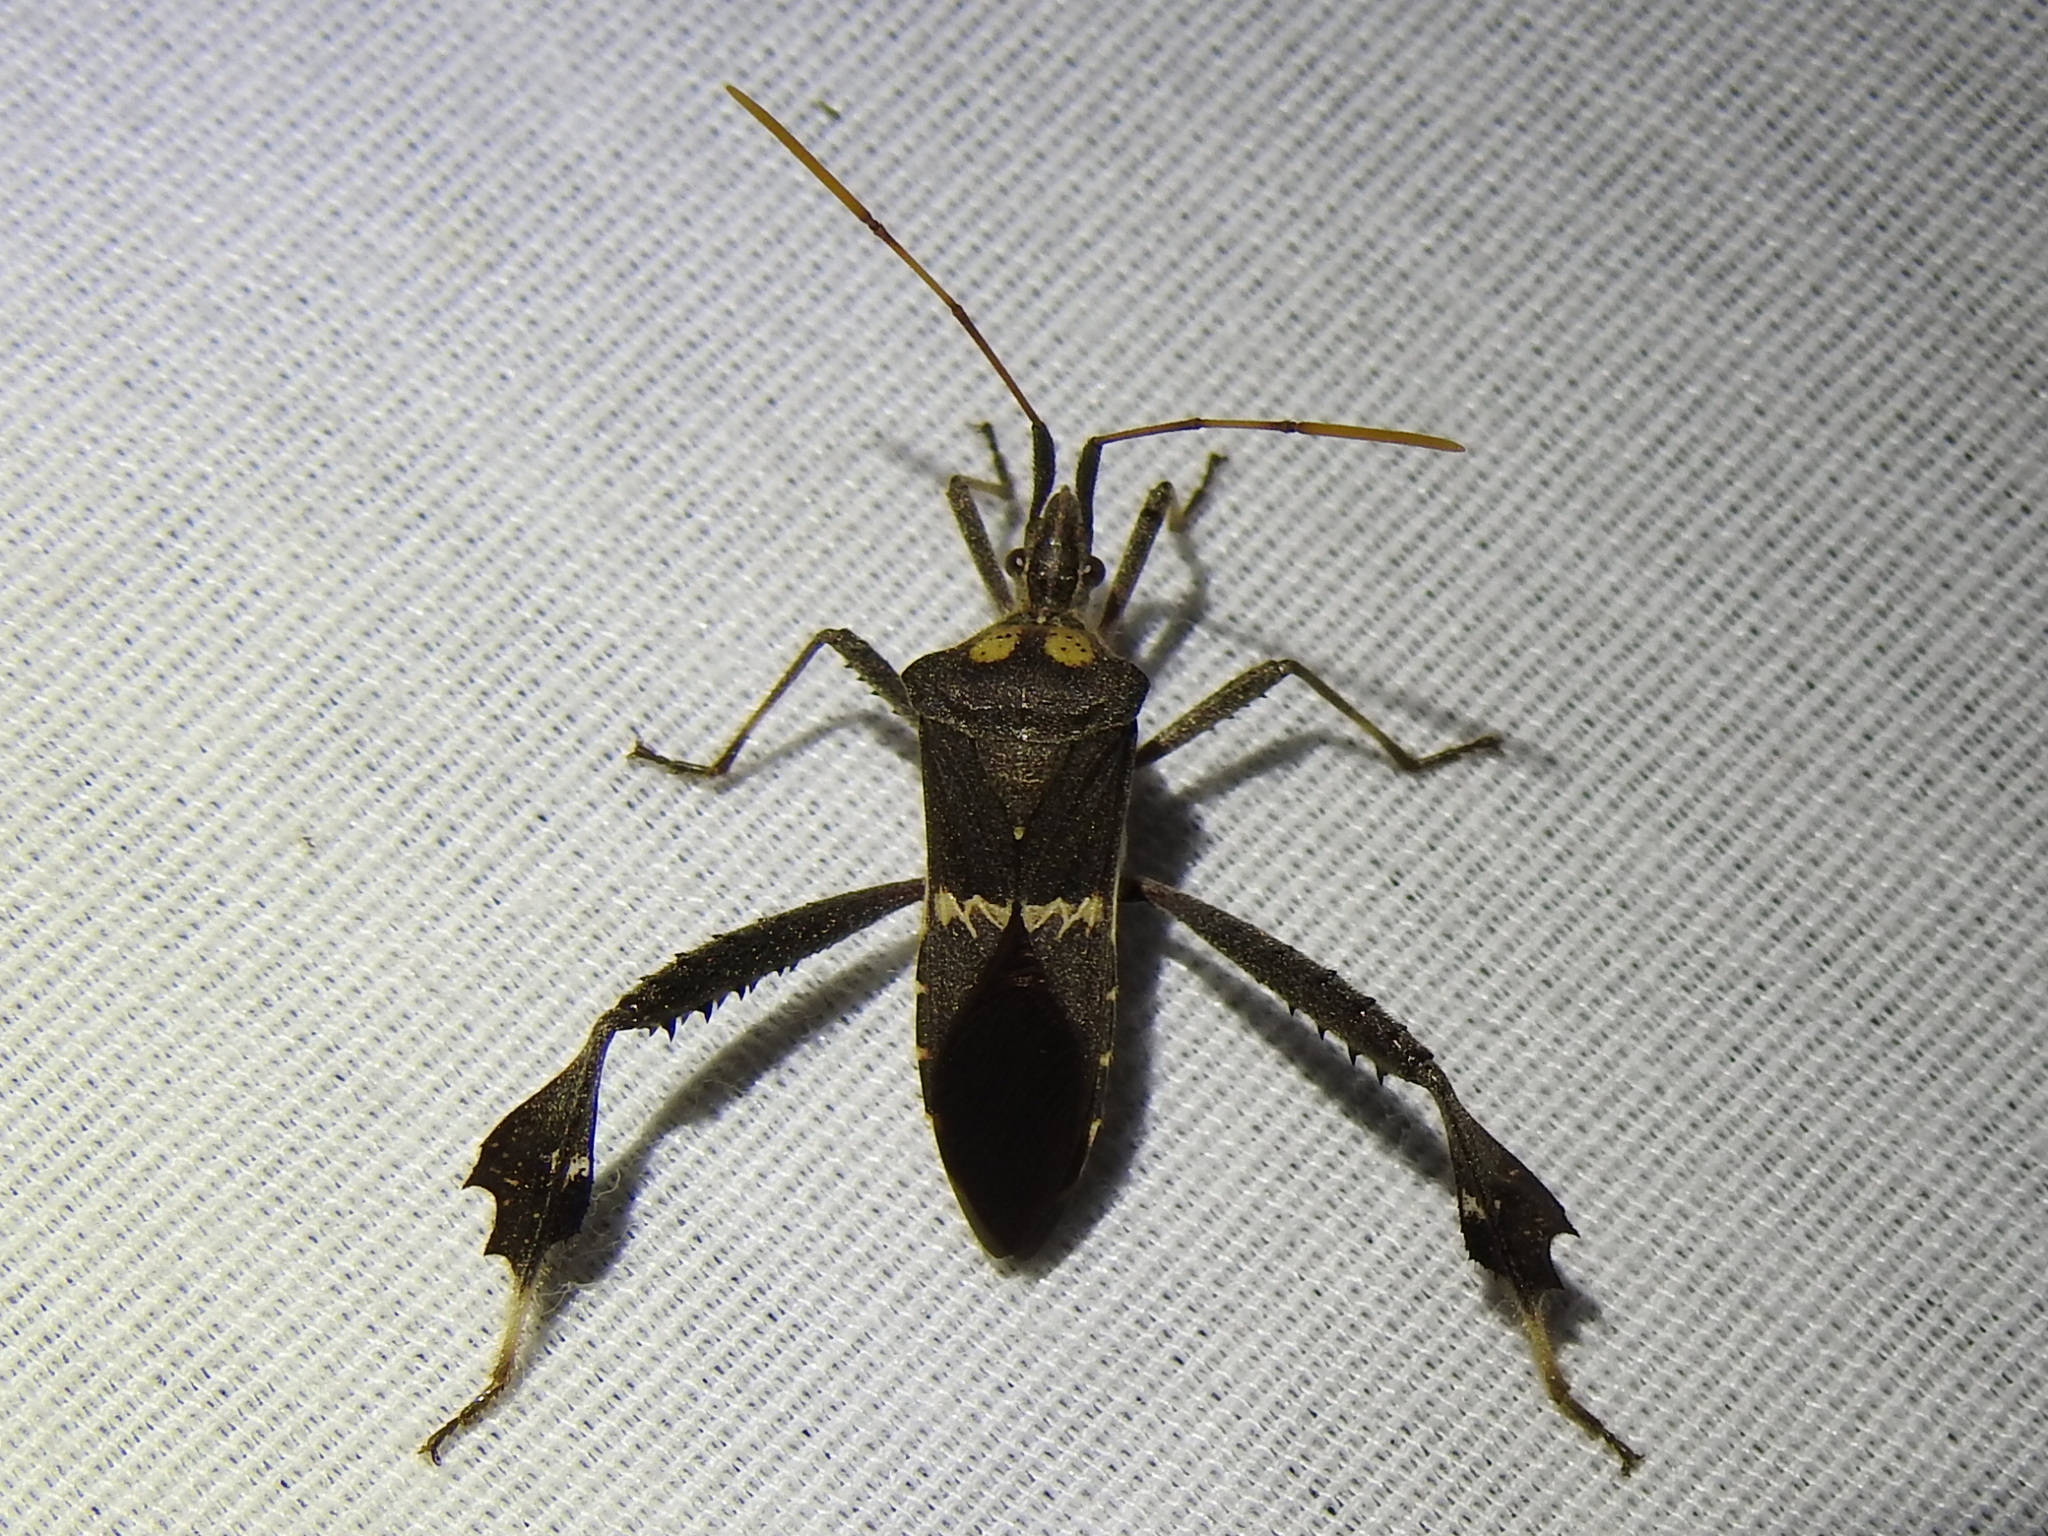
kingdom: Animalia
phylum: Arthropoda
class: Insecta
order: Hemiptera
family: Coreidae
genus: Leptoglossus
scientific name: Leptoglossus zonatus
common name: Large-legged bug
